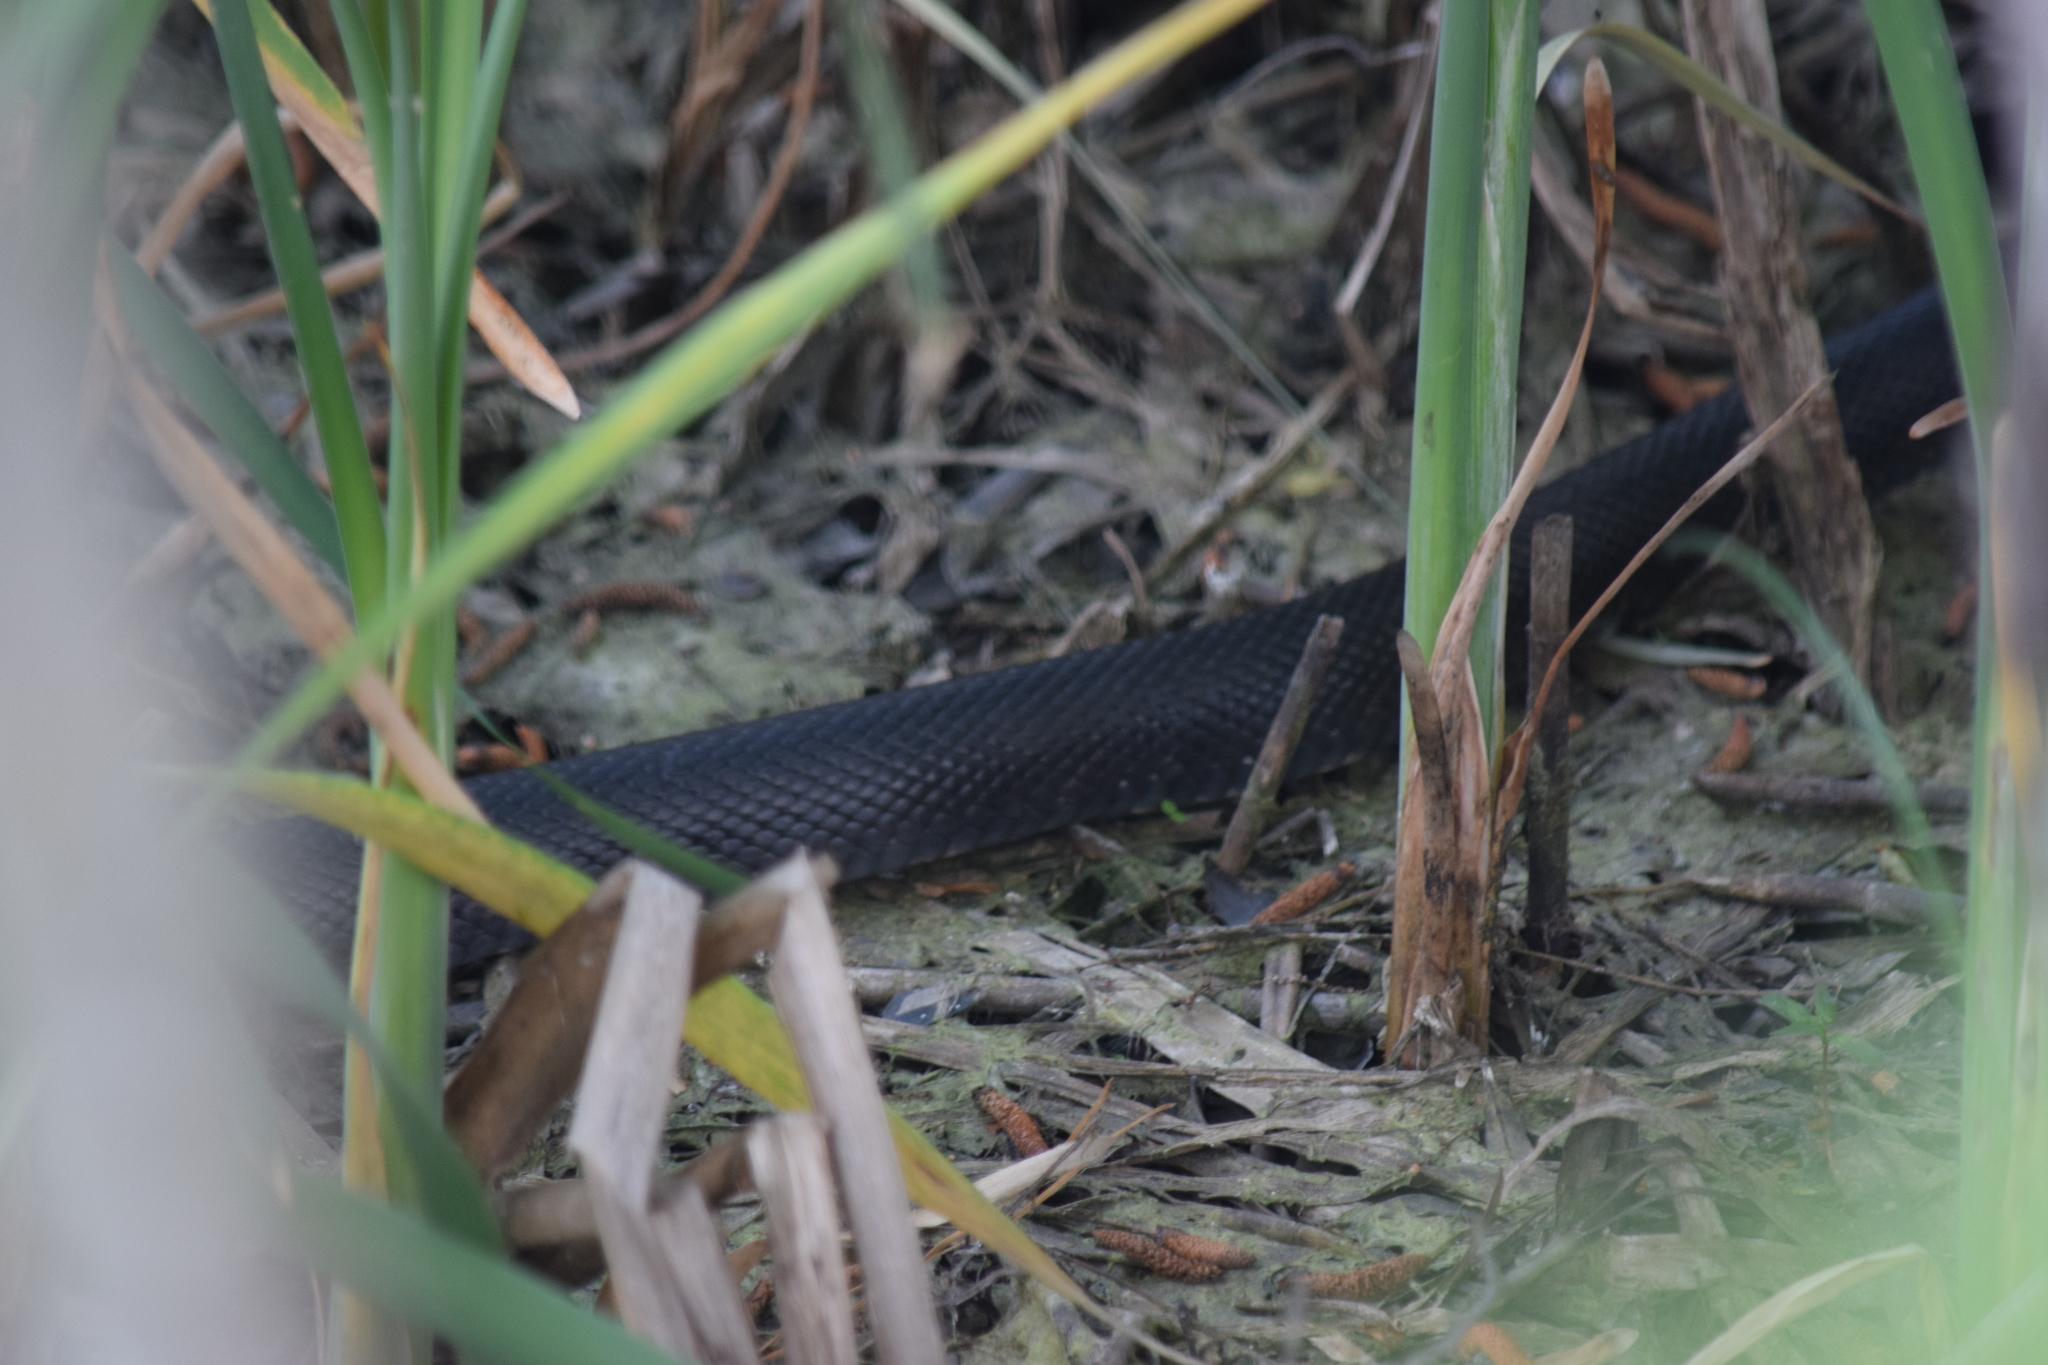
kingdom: Animalia
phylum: Chordata
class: Squamata
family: Colubridae
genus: Pantherophis
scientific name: Pantherophis alleghaniensis
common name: Eastern rat snake
